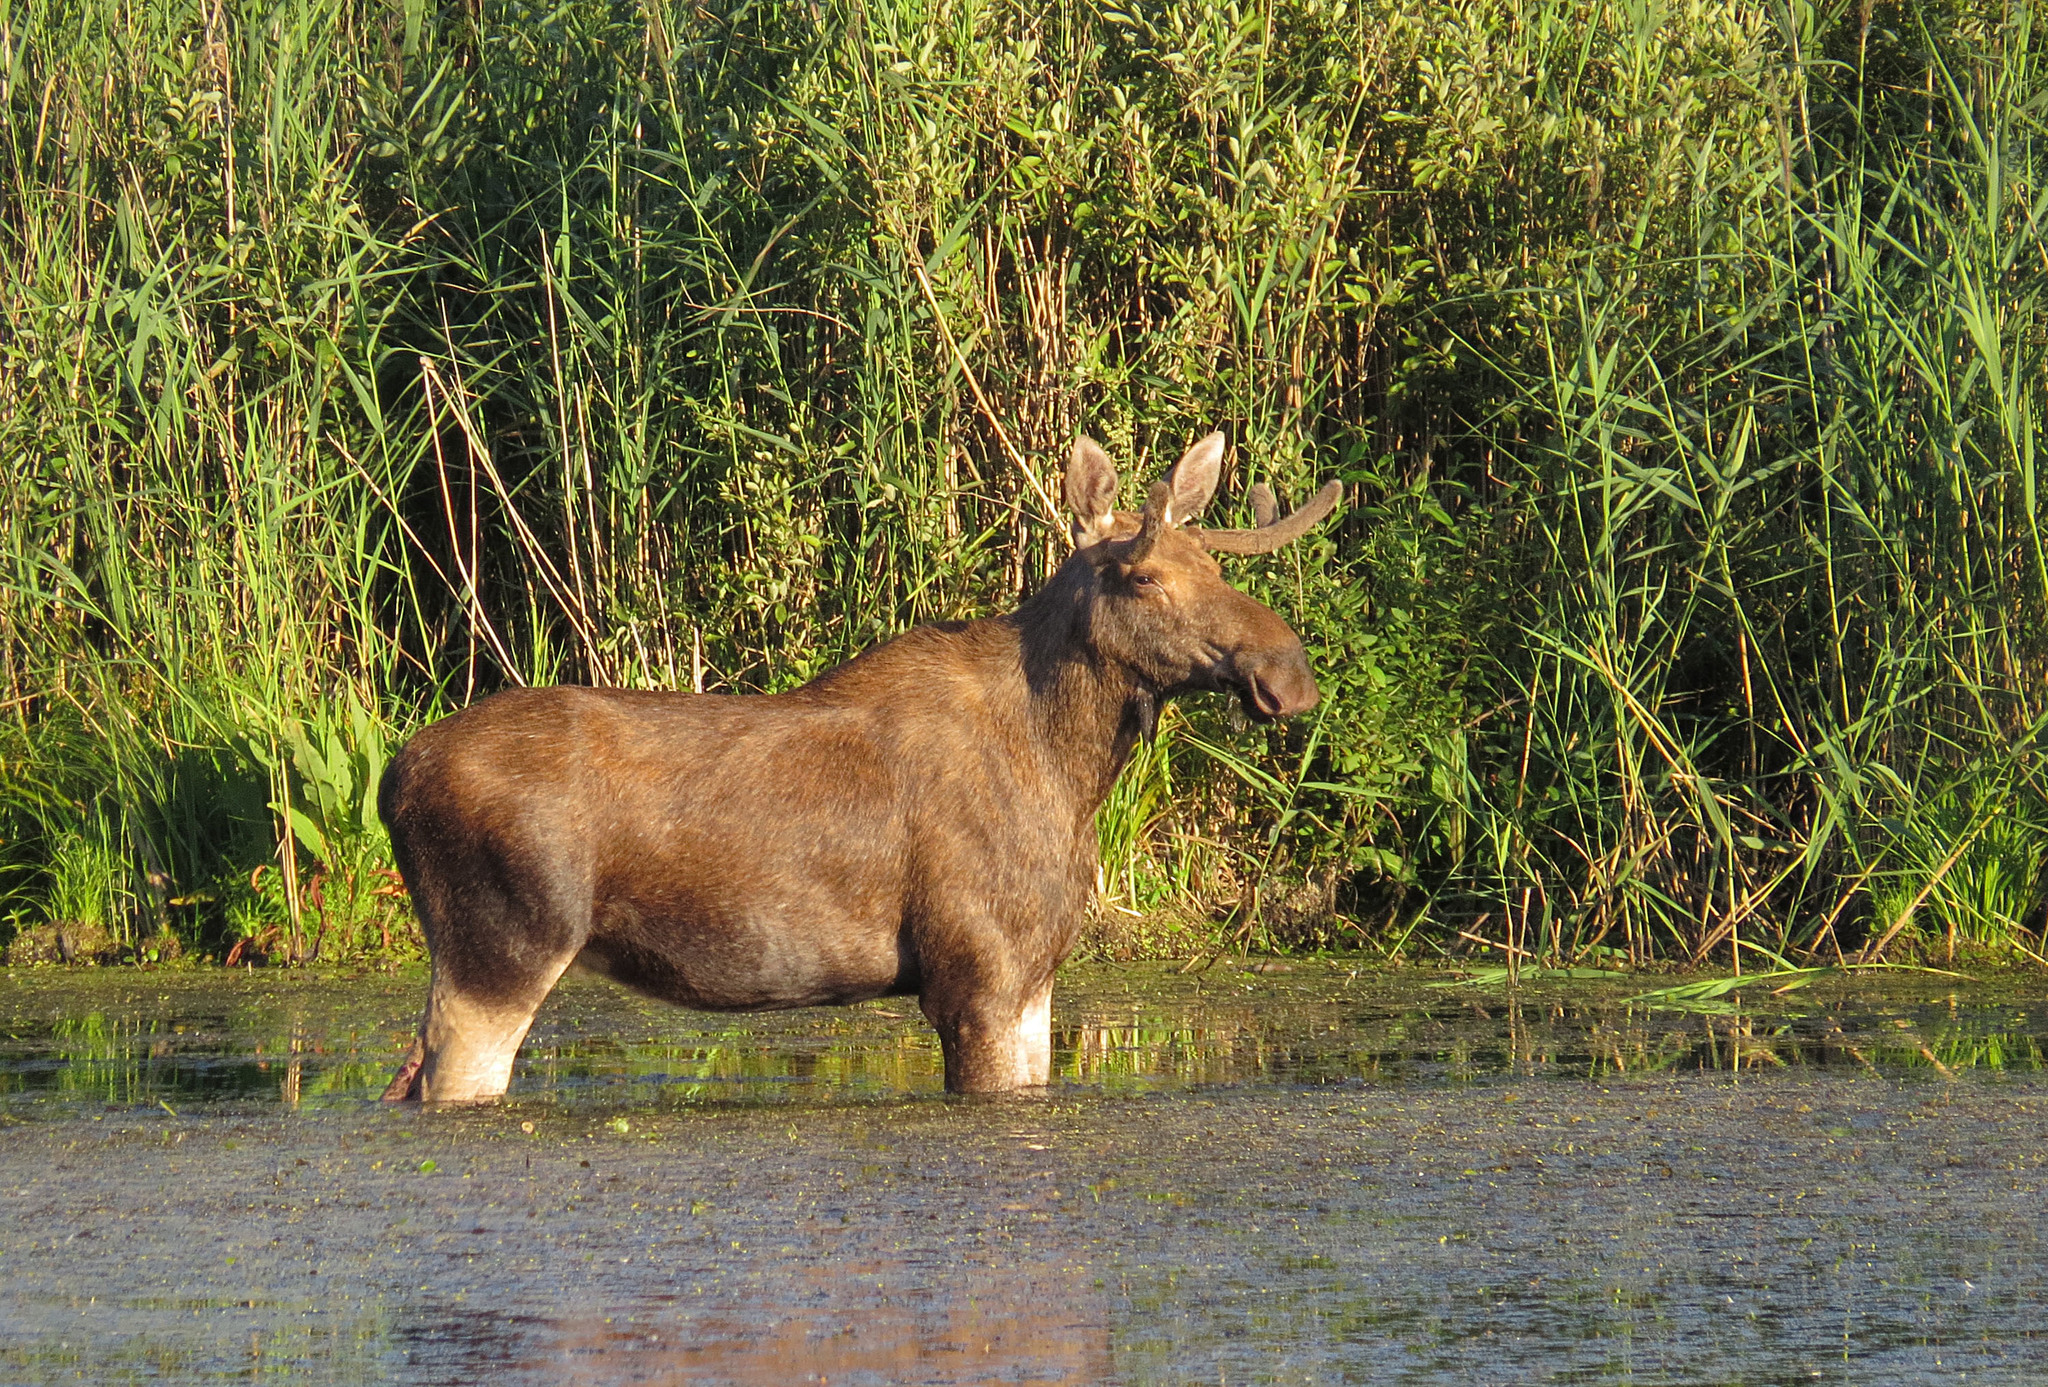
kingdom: Animalia
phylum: Chordata
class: Mammalia
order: Artiodactyla
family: Cervidae
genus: Alces
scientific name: Alces alces
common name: Moose
